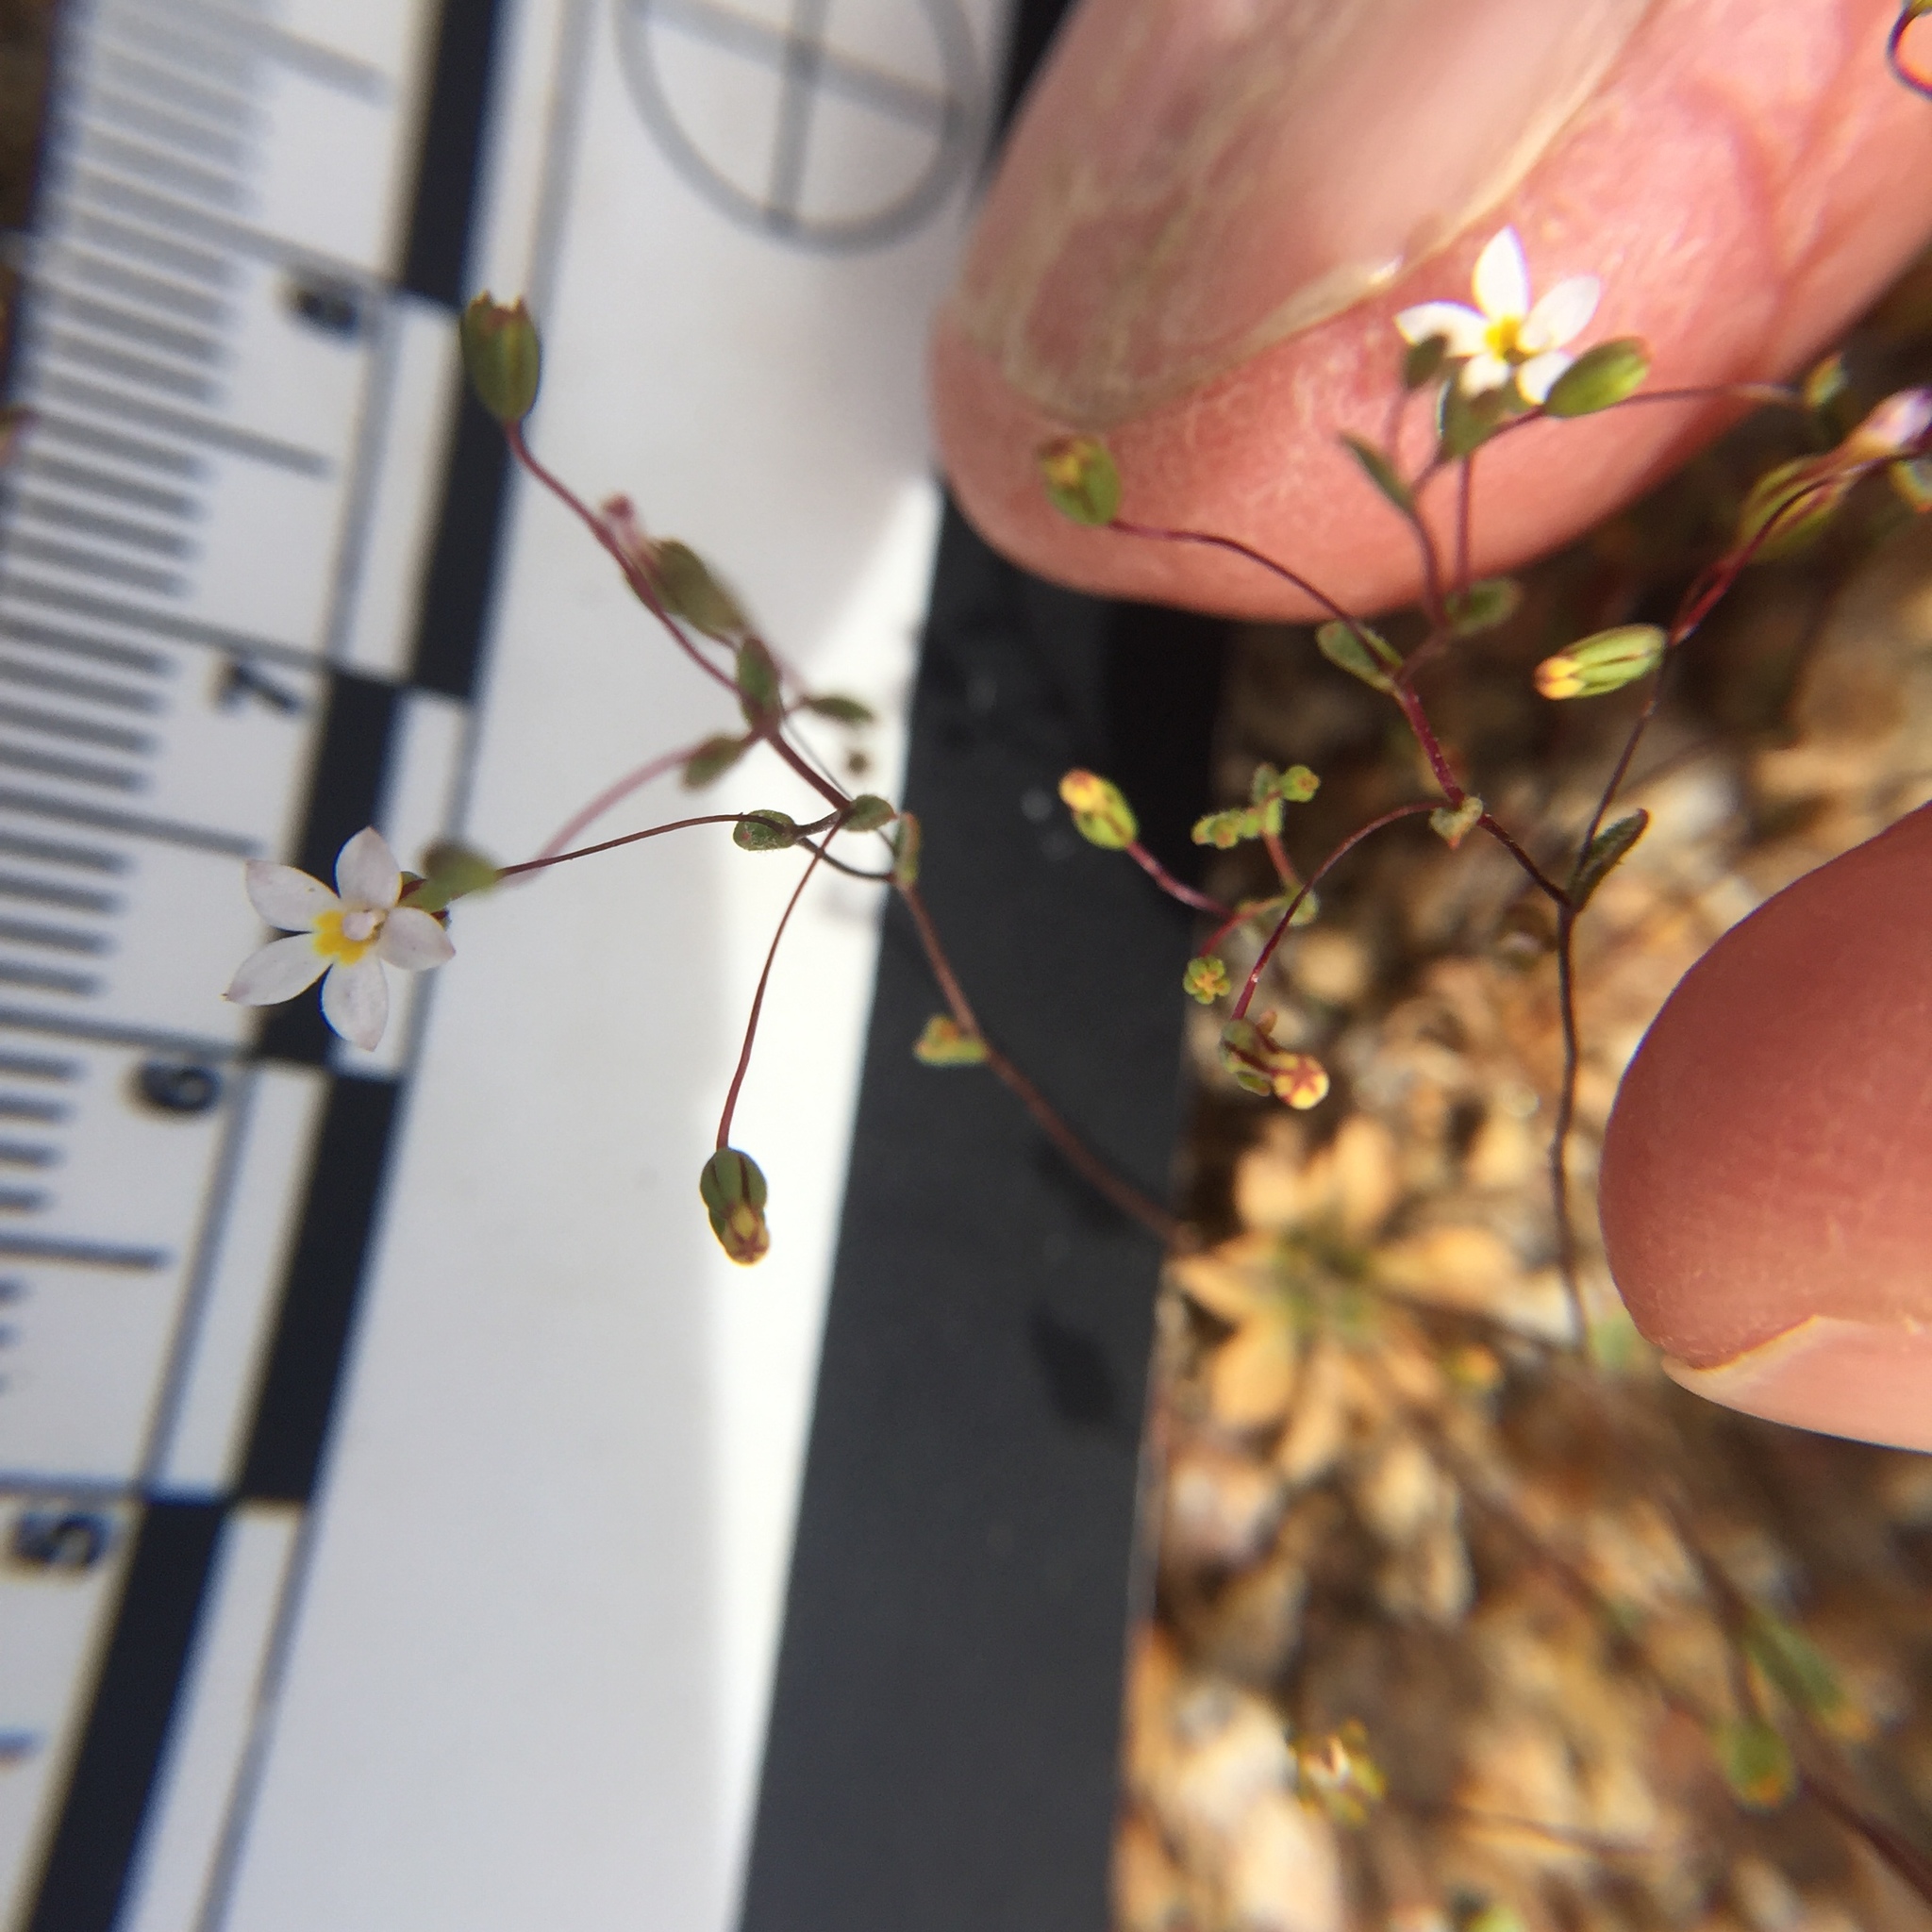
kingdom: Plantae
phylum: Tracheophyta
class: Magnoliopsida
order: Asterales
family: Campanulaceae
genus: Nemacladus
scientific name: Nemacladus breviflorus
